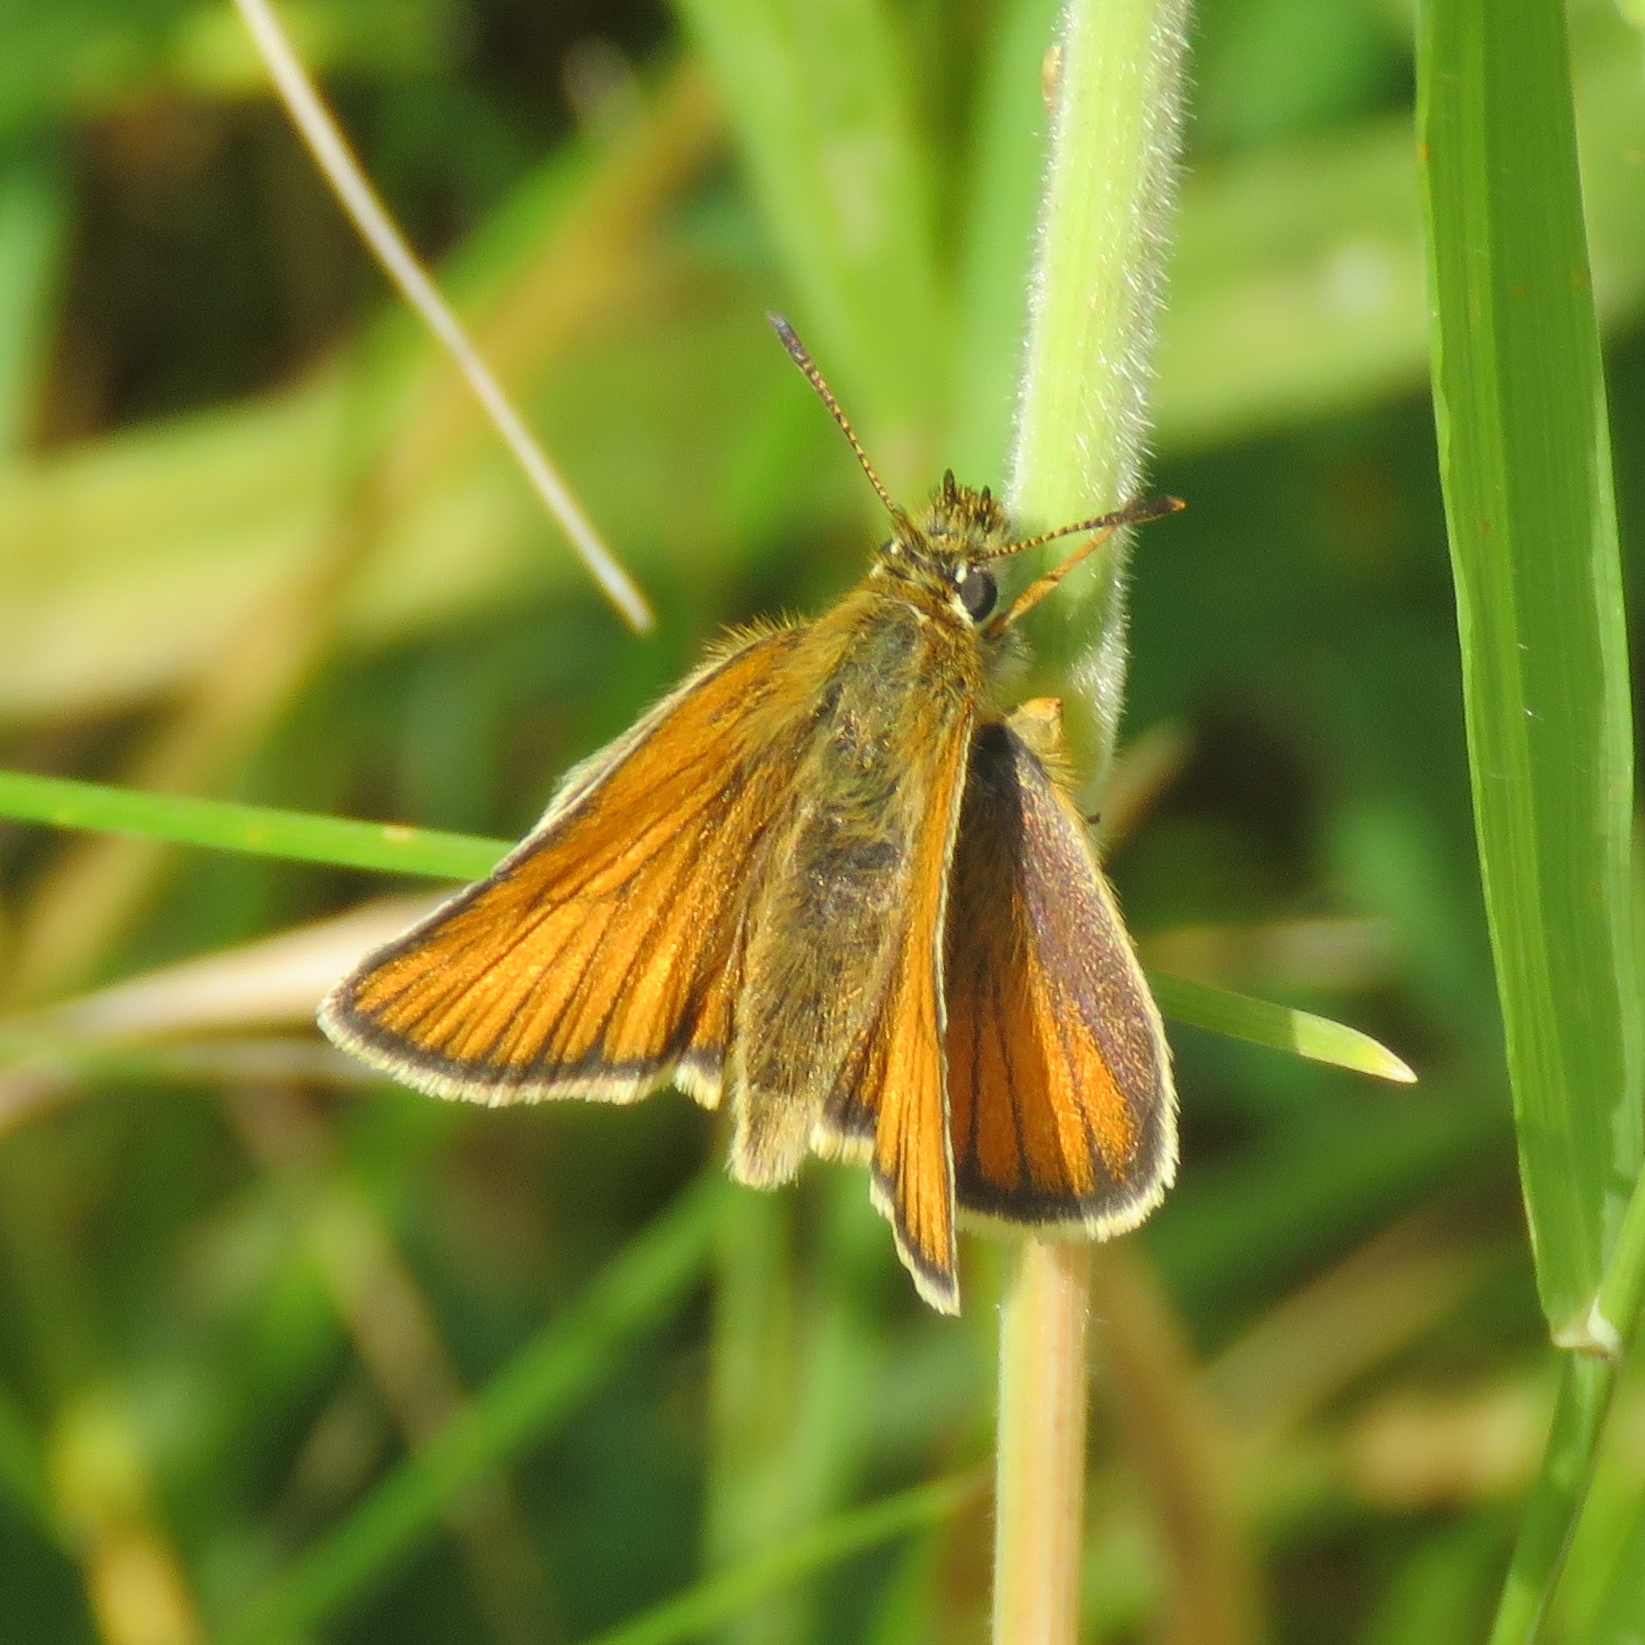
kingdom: Animalia
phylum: Arthropoda
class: Insecta
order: Lepidoptera
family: Hesperiidae
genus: Thymelicus
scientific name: Thymelicus sylvestris
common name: Small skipper
